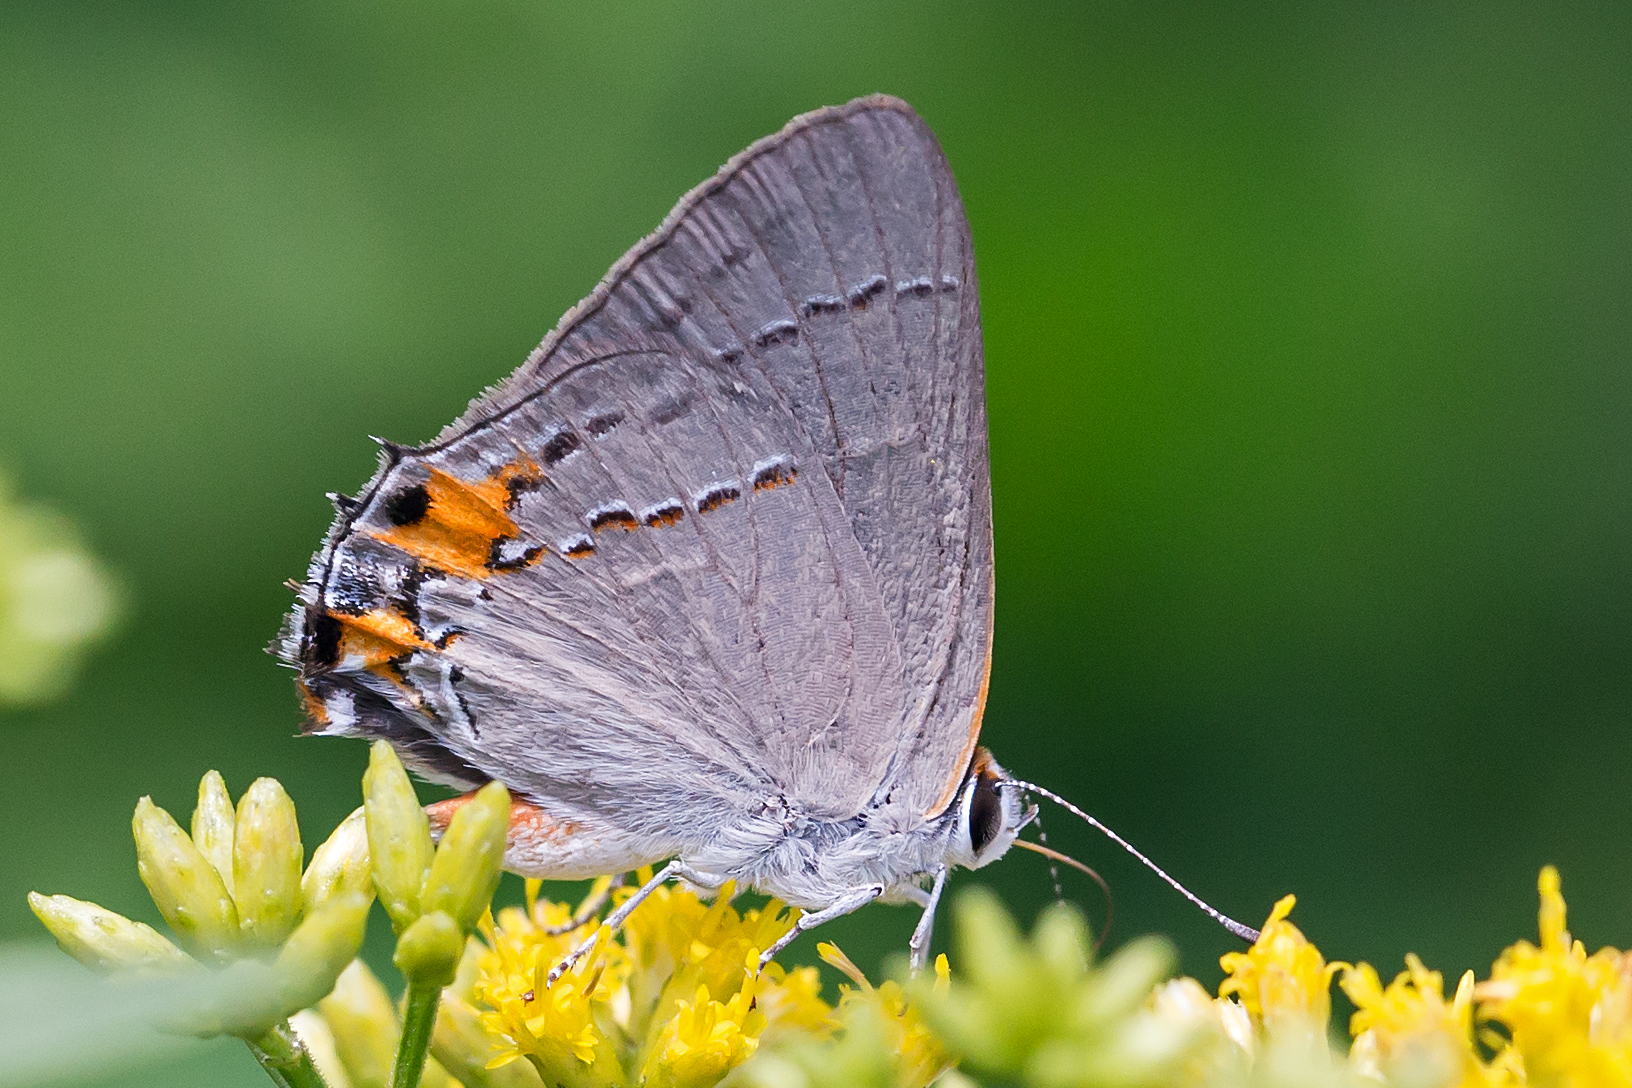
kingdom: Animalia
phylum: Arthropoda
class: Insecta
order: Lepidoptera
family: Lycaenidae
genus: Strymon
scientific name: Strymon melinus
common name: Gray hairstreak
